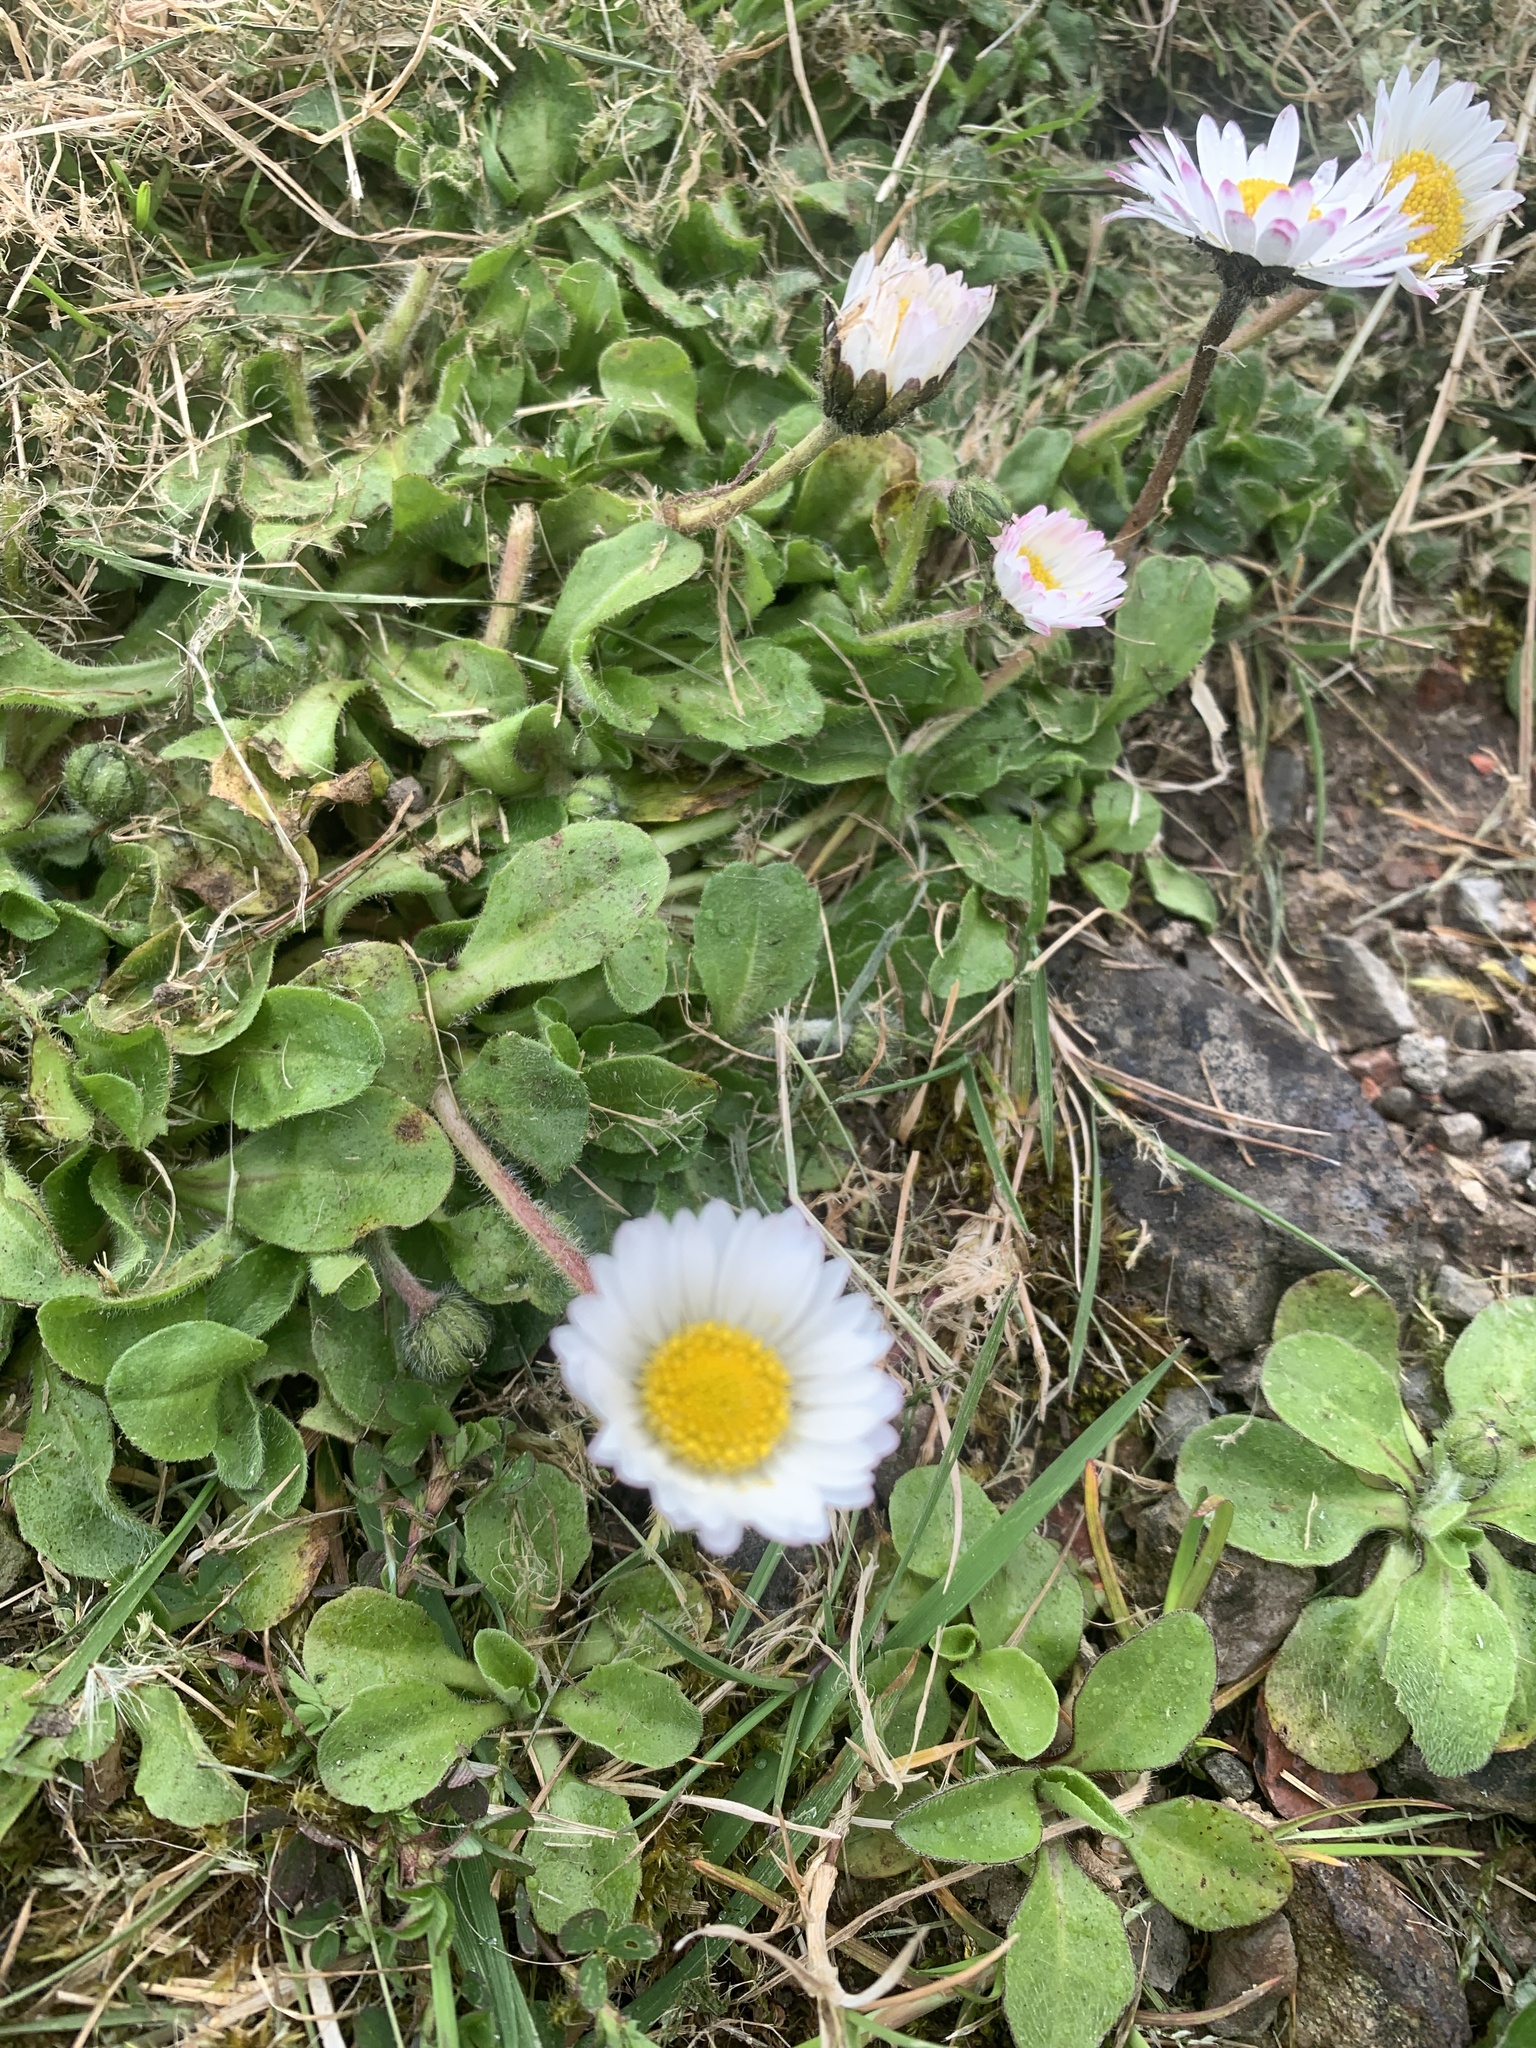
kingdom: Plantae
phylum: Tracheophyta
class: Magnoliopsida
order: Asterales
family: Asteraceae
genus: Bellis
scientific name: Bellis perennis
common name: Lawndaisy
